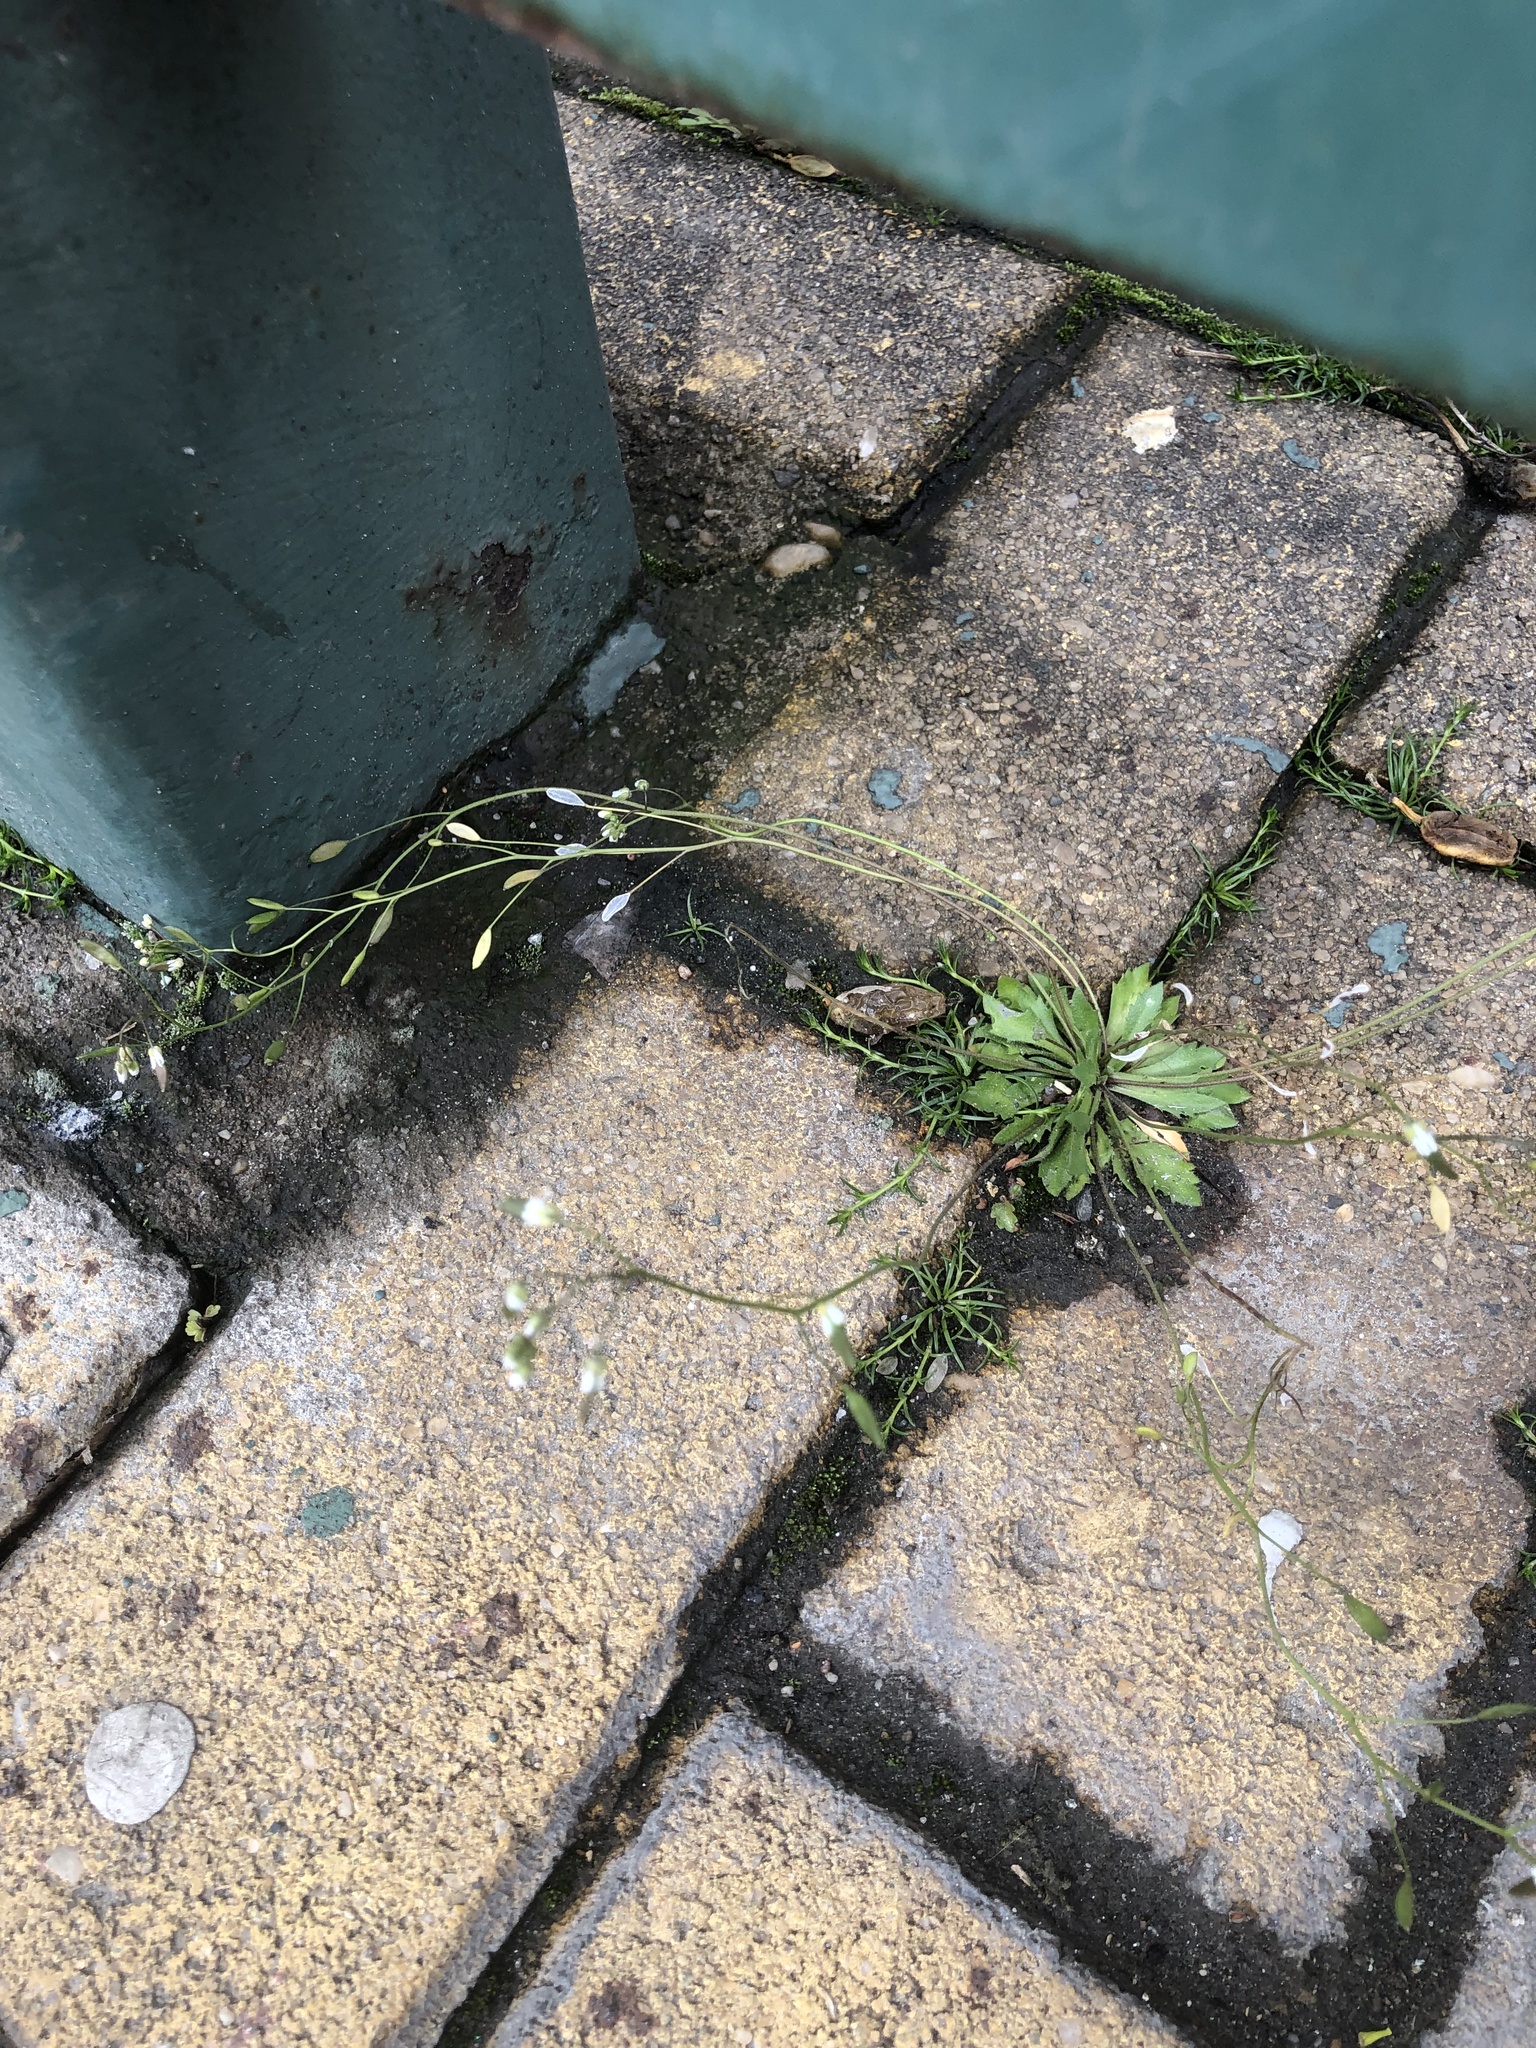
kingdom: Plantae
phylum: Tracheophyta
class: Magnoliopsida
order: Brassicales
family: Brassicaceae
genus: Draba
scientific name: Draba verna
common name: Spring draba
